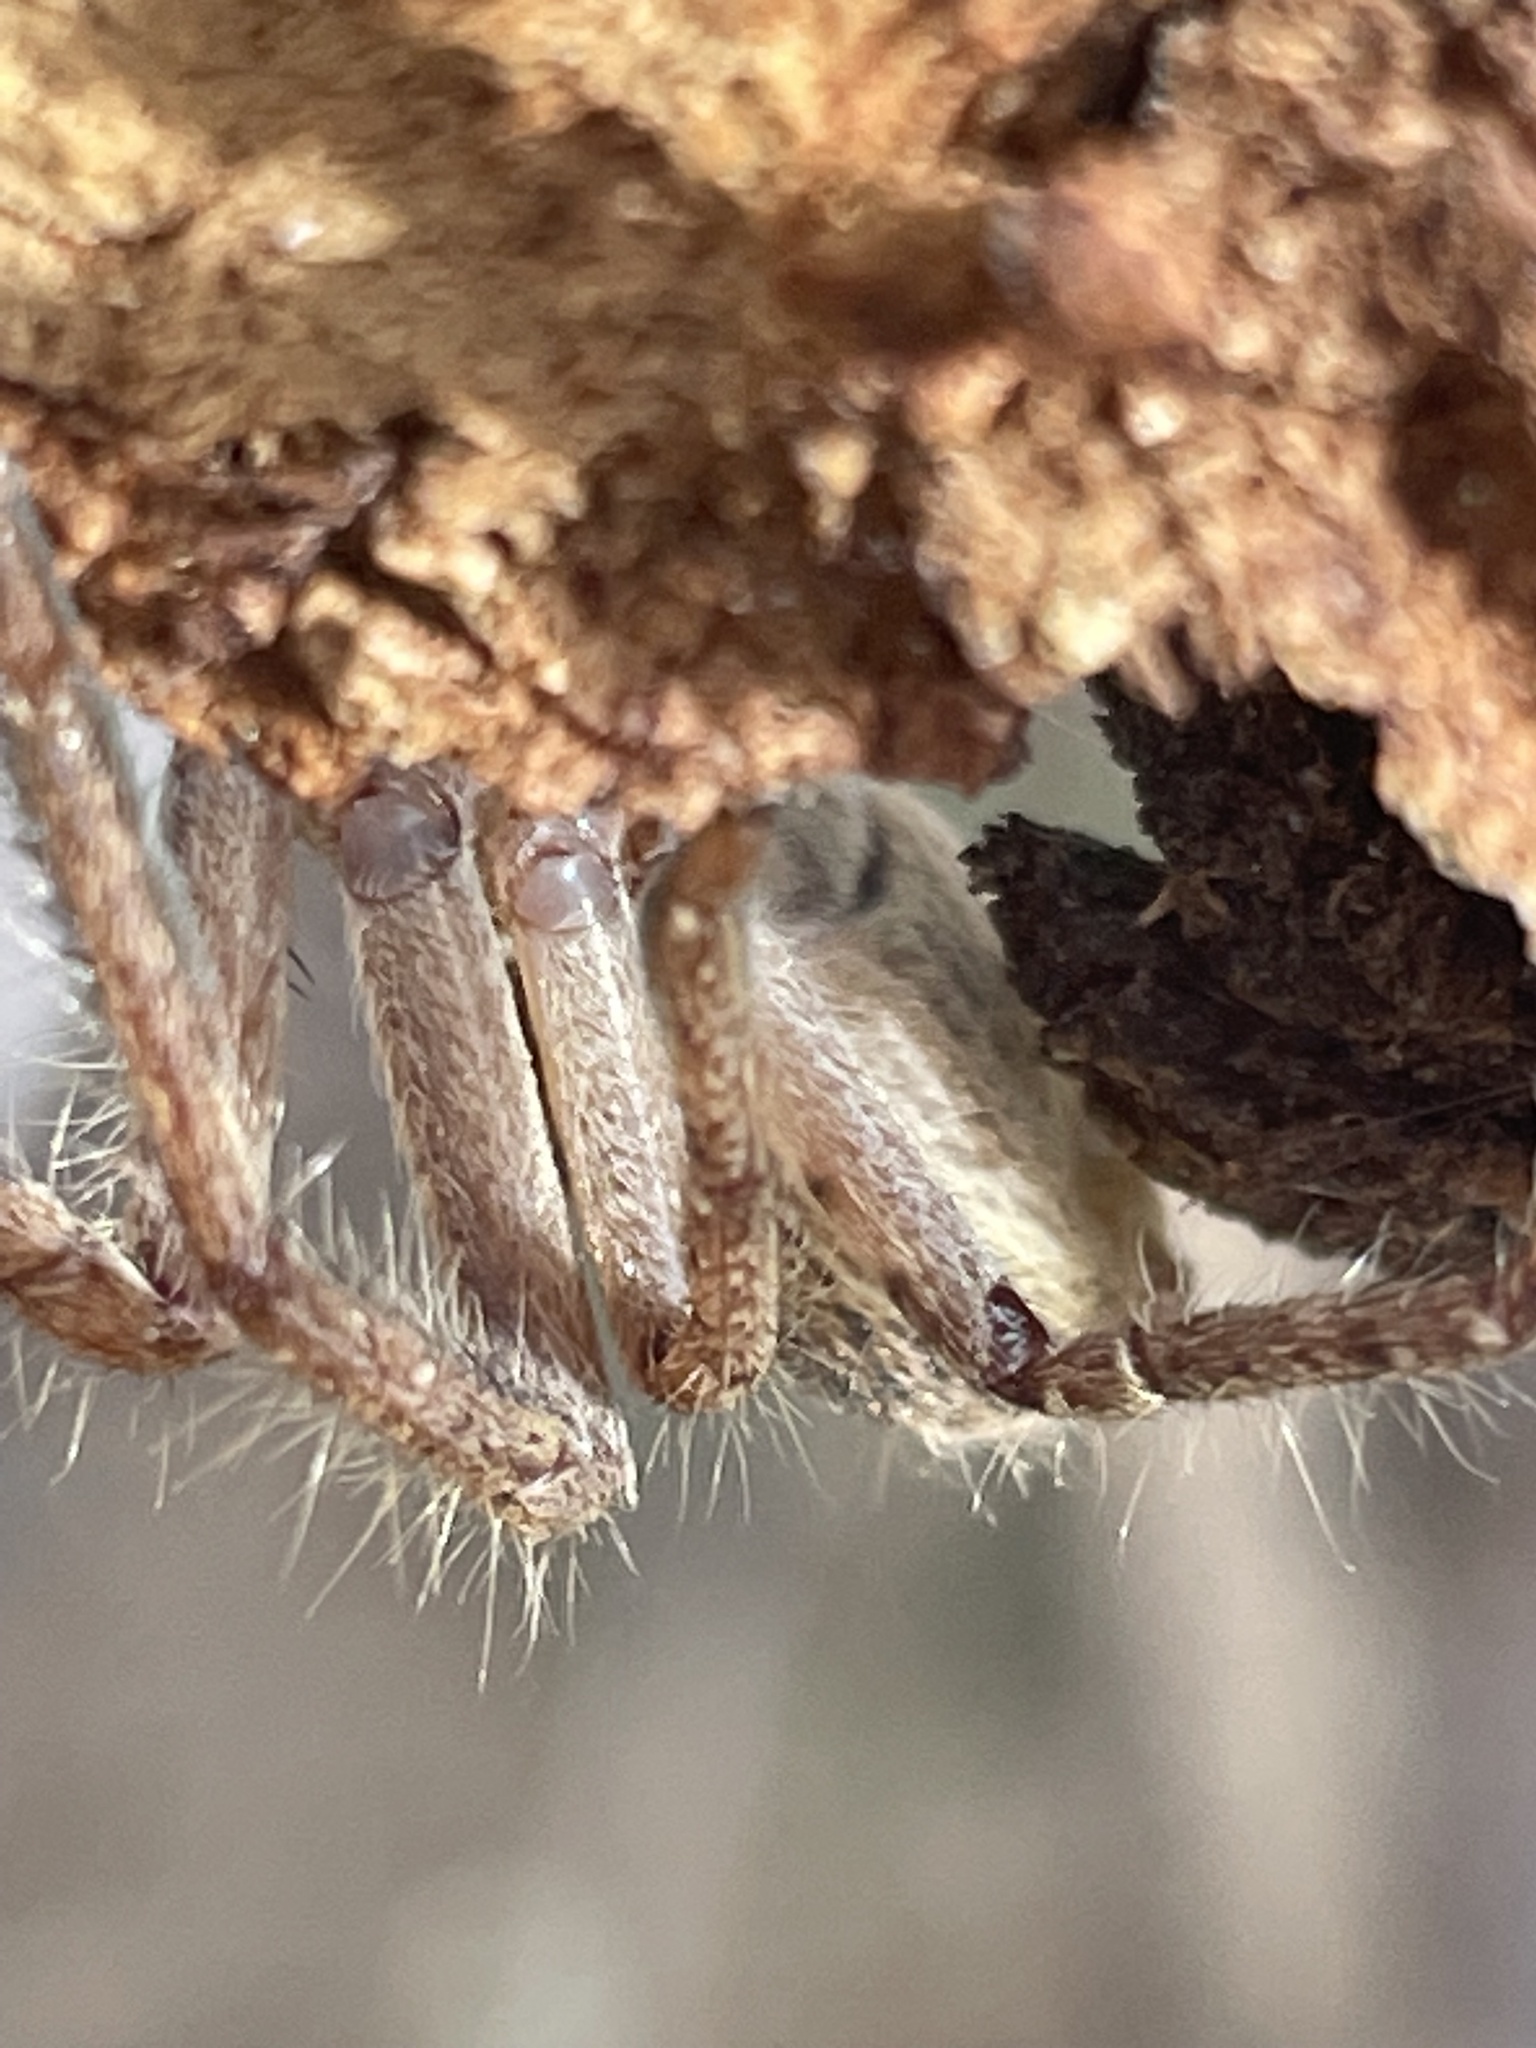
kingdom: Animalia
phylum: Arthropoda
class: Arachnida
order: Araneae
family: Sparassidae
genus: Isopeda
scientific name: Isopeda canberrana
